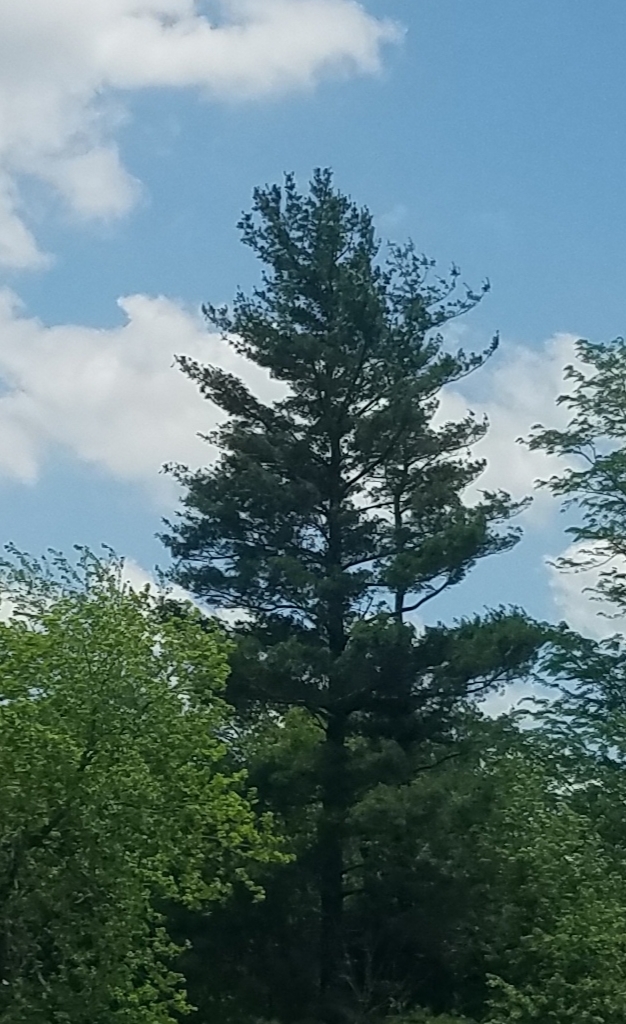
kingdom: Plantae
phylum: Tracheophyta
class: Pinopsida
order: Pinales
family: Pinaceae
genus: Pinus
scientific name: Pinus strobus
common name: Weymouth pine
